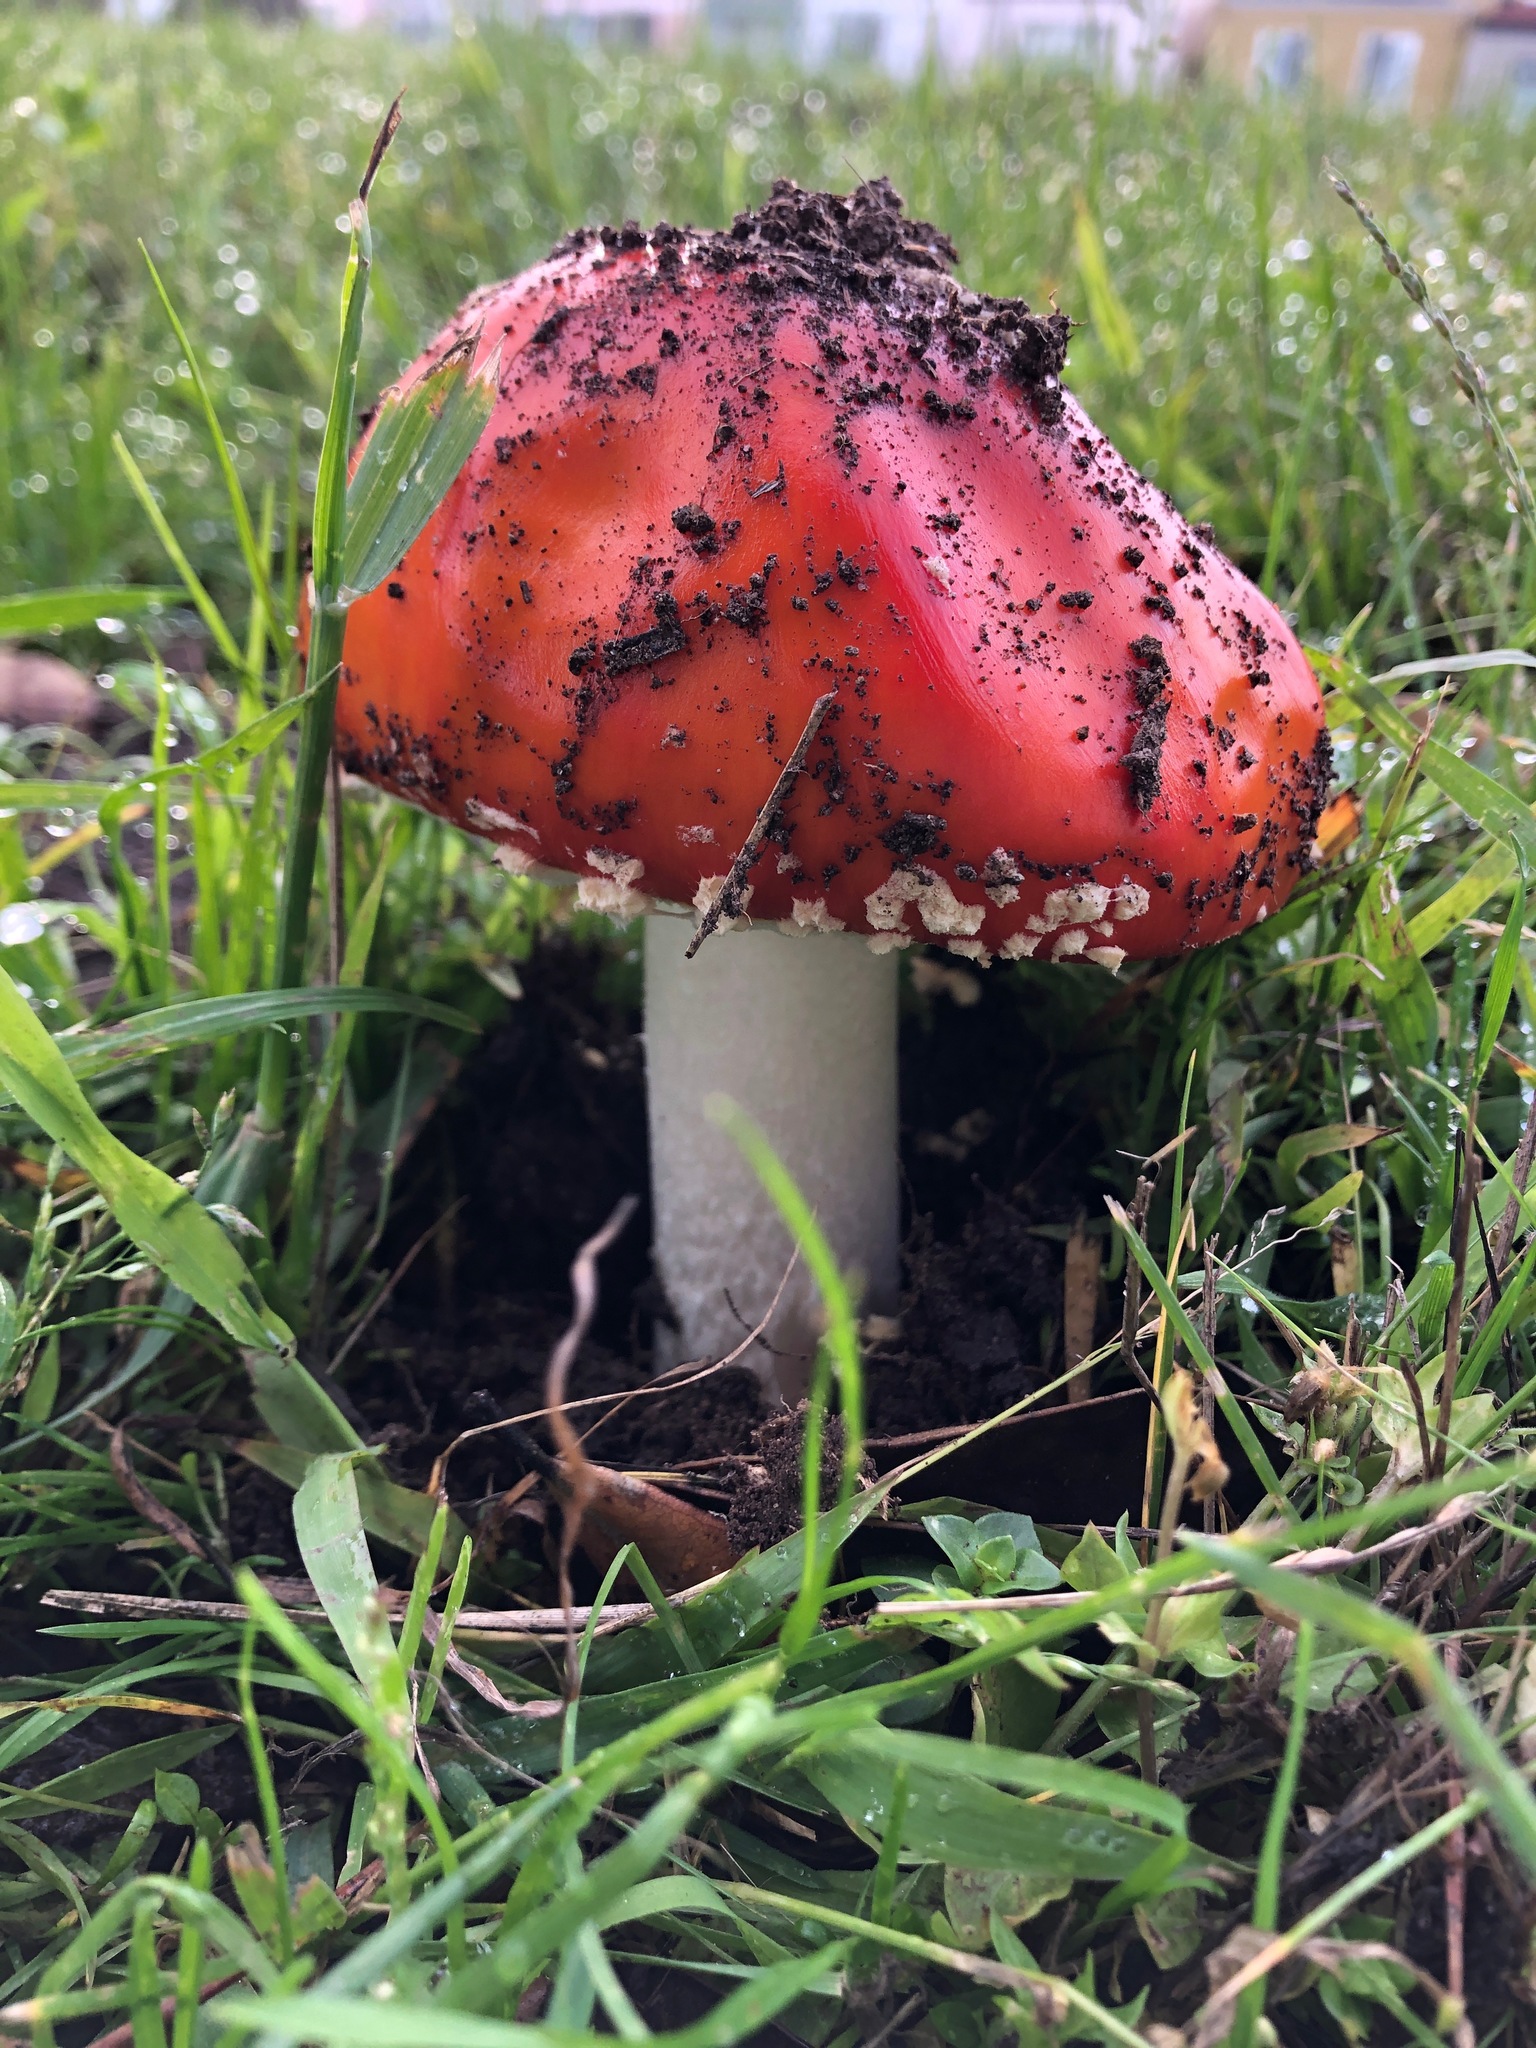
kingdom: Fungi
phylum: Basidiomycota
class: Agaricomycetes
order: Agaricales
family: Amanitaceae
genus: Amanita
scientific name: Amanita muscaria
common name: Fly agaric
